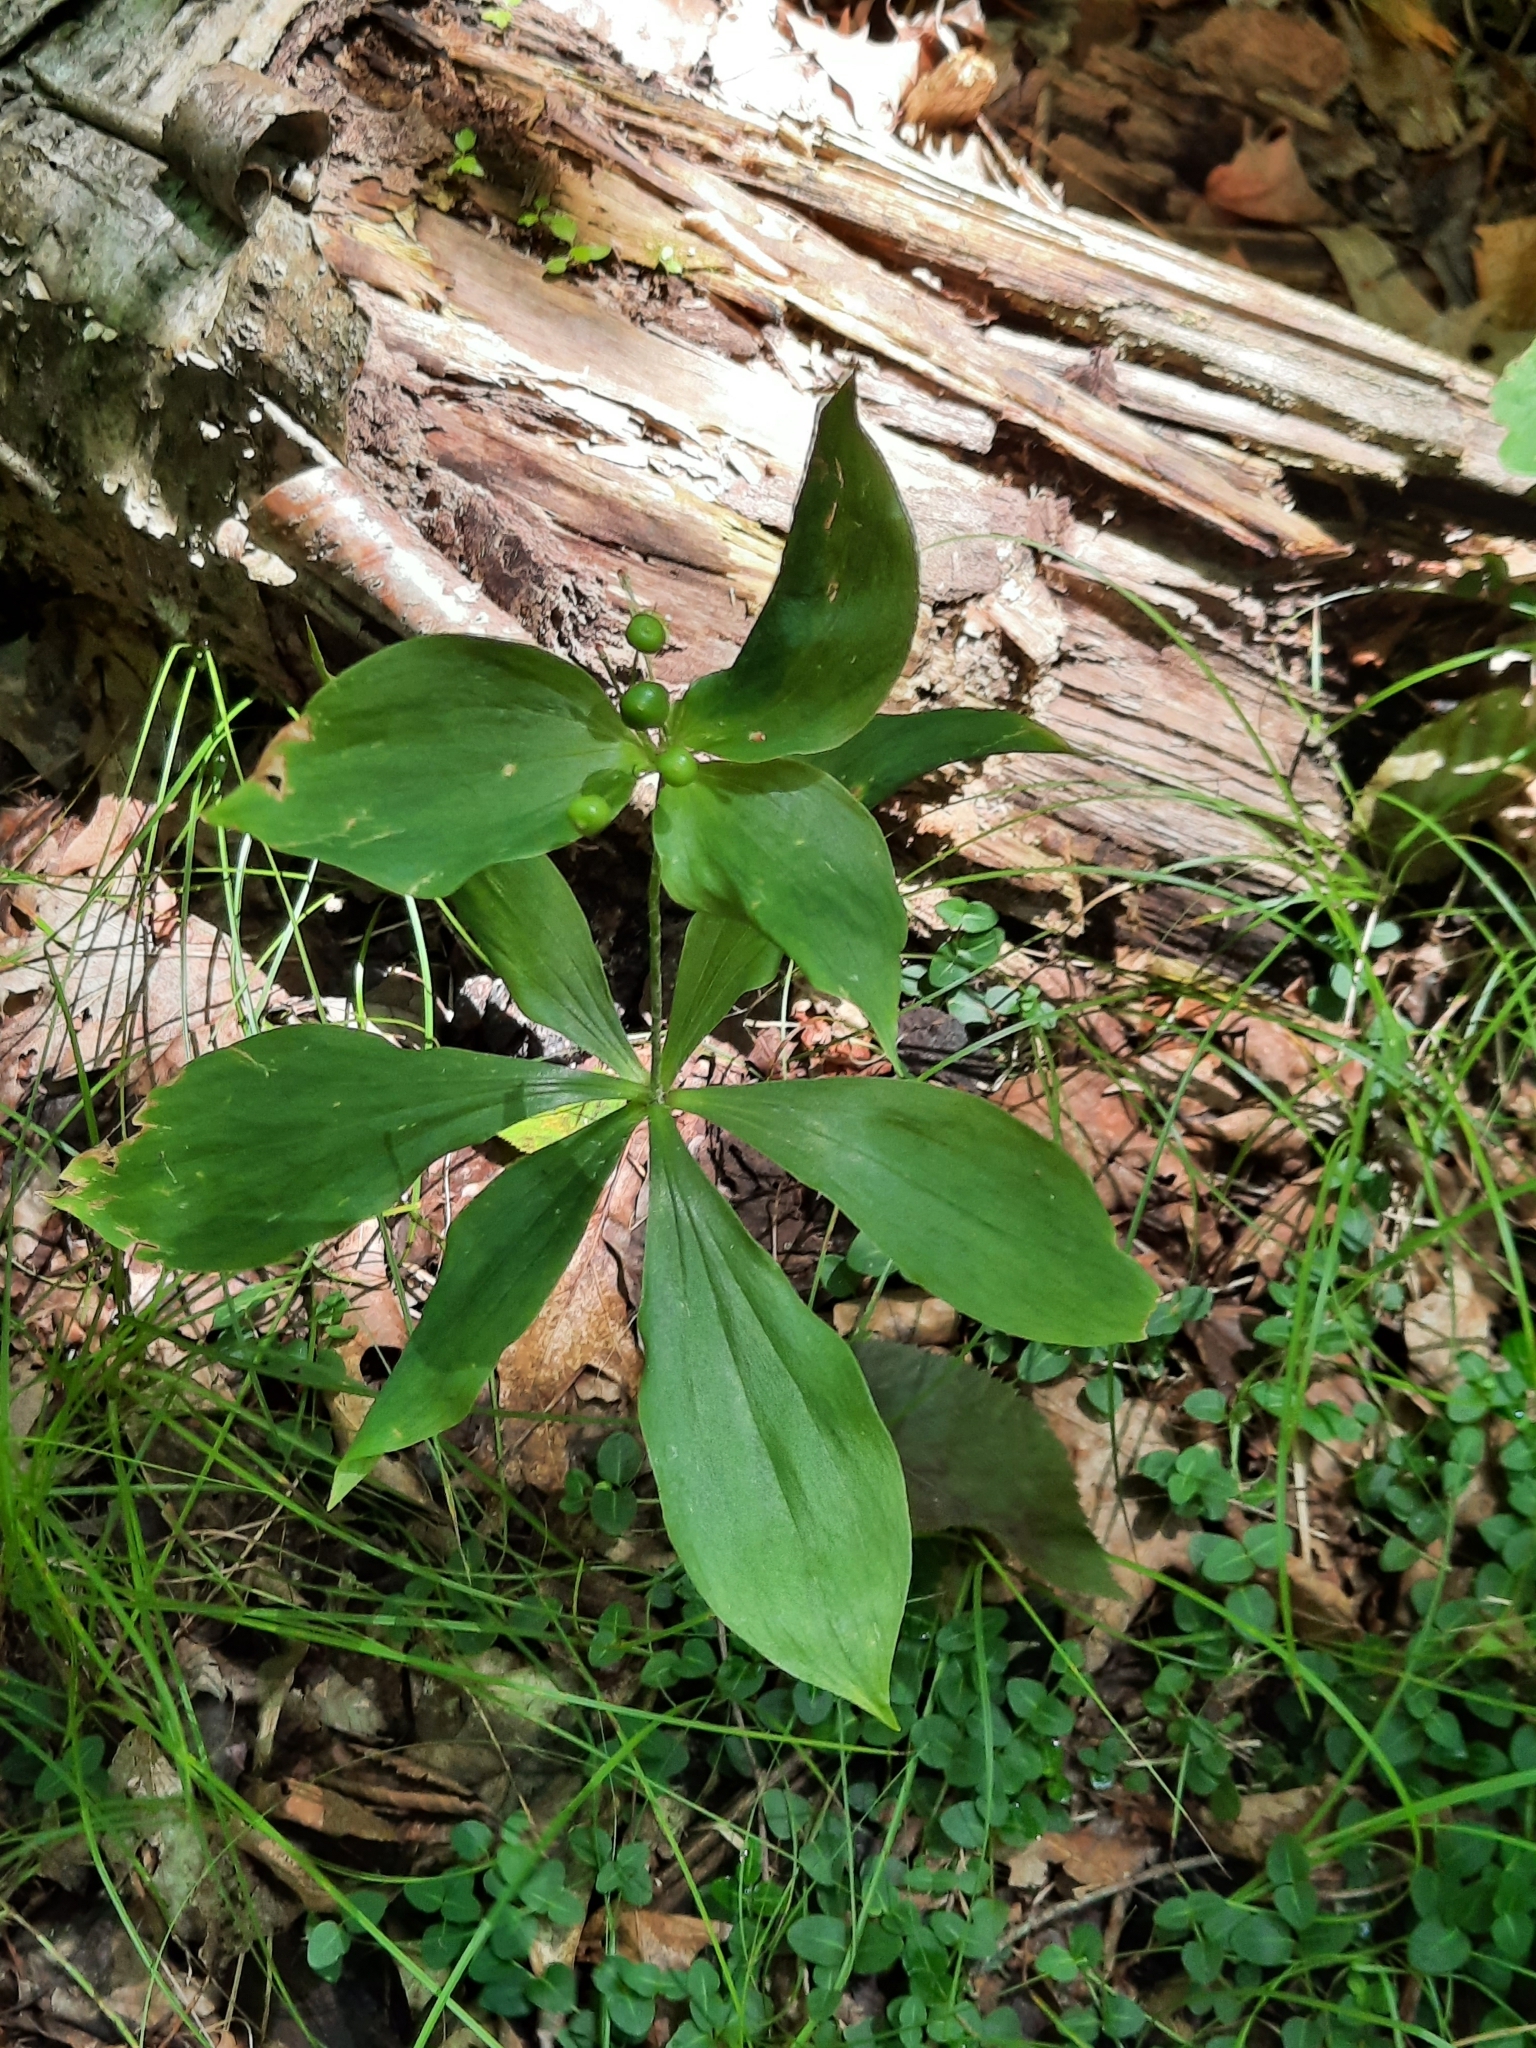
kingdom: Plantae
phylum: Tracheophyta
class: Liliopsida
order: Liliales
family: Liliaceae
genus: Medeola
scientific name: Medeola virginiana
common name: Indian cucumber-root
